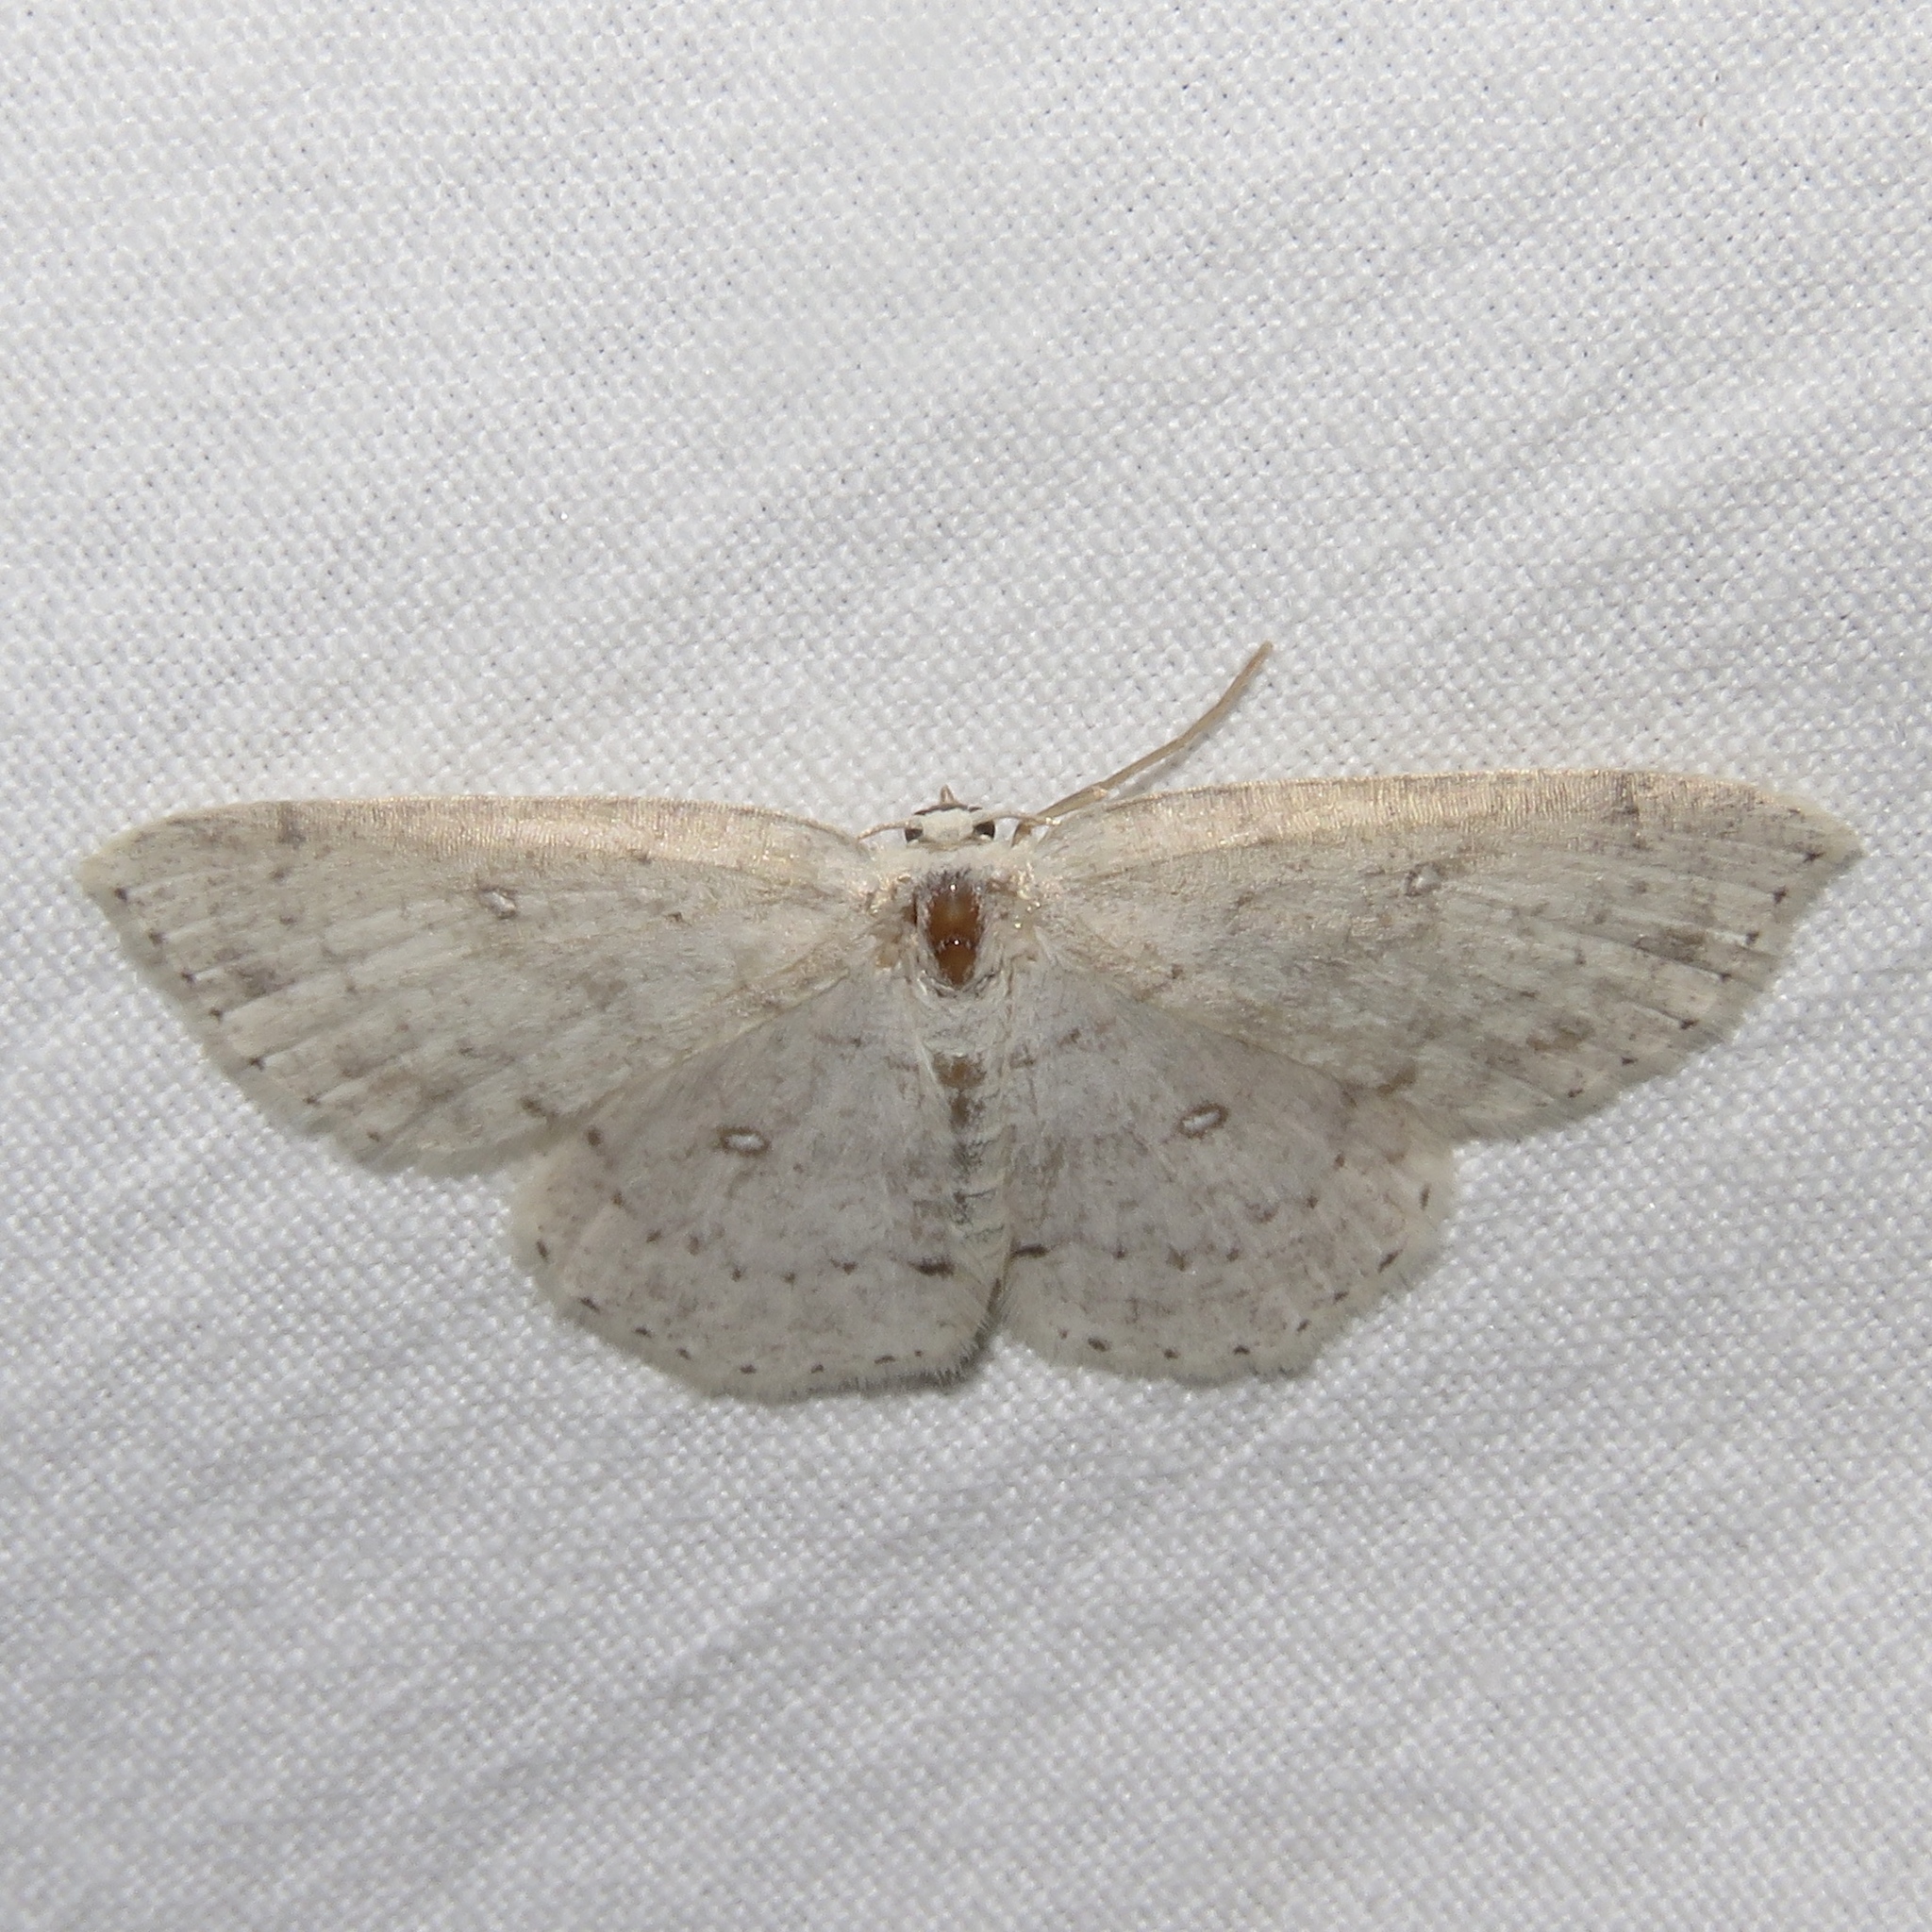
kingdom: Animalia
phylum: Arthropoda
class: Insecta
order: Lepidoptera
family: Geometridae
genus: Cyclophora
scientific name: Cyclophora pendulinaria
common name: Sweet fern geometer
